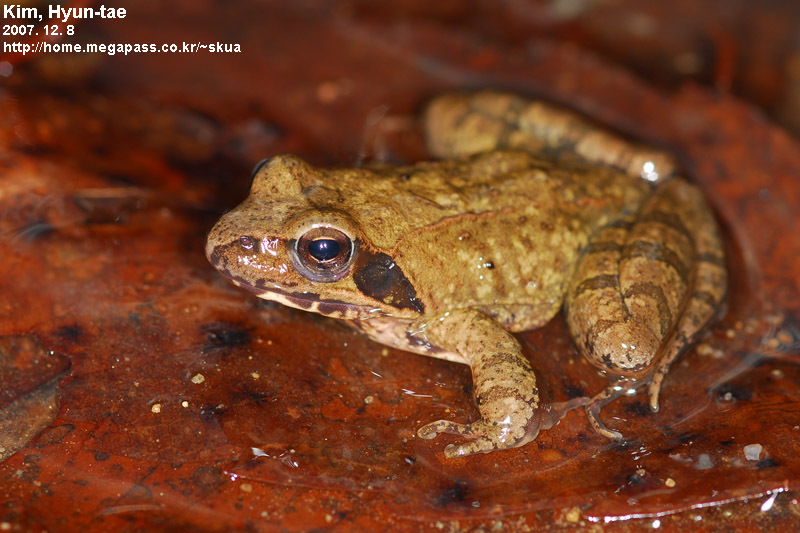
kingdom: Animalia
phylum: Chordata
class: Amphibia
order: Anura
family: Ranidae
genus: Rana
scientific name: Rana uenoi
